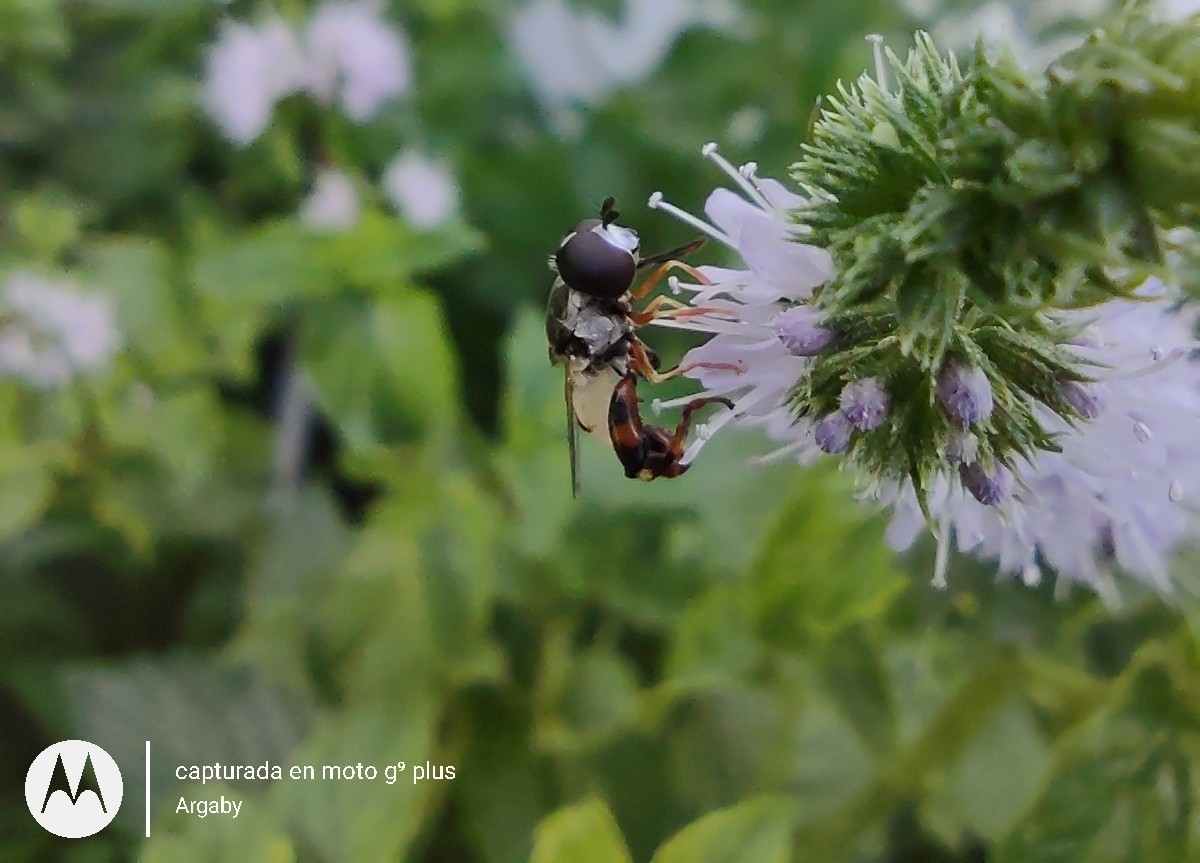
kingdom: Animalia
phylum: Arthropoda
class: Insecta
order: Diptera
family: Syrphidae
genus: Syritta
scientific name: Syritta flaviventris
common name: Syrphid fly
